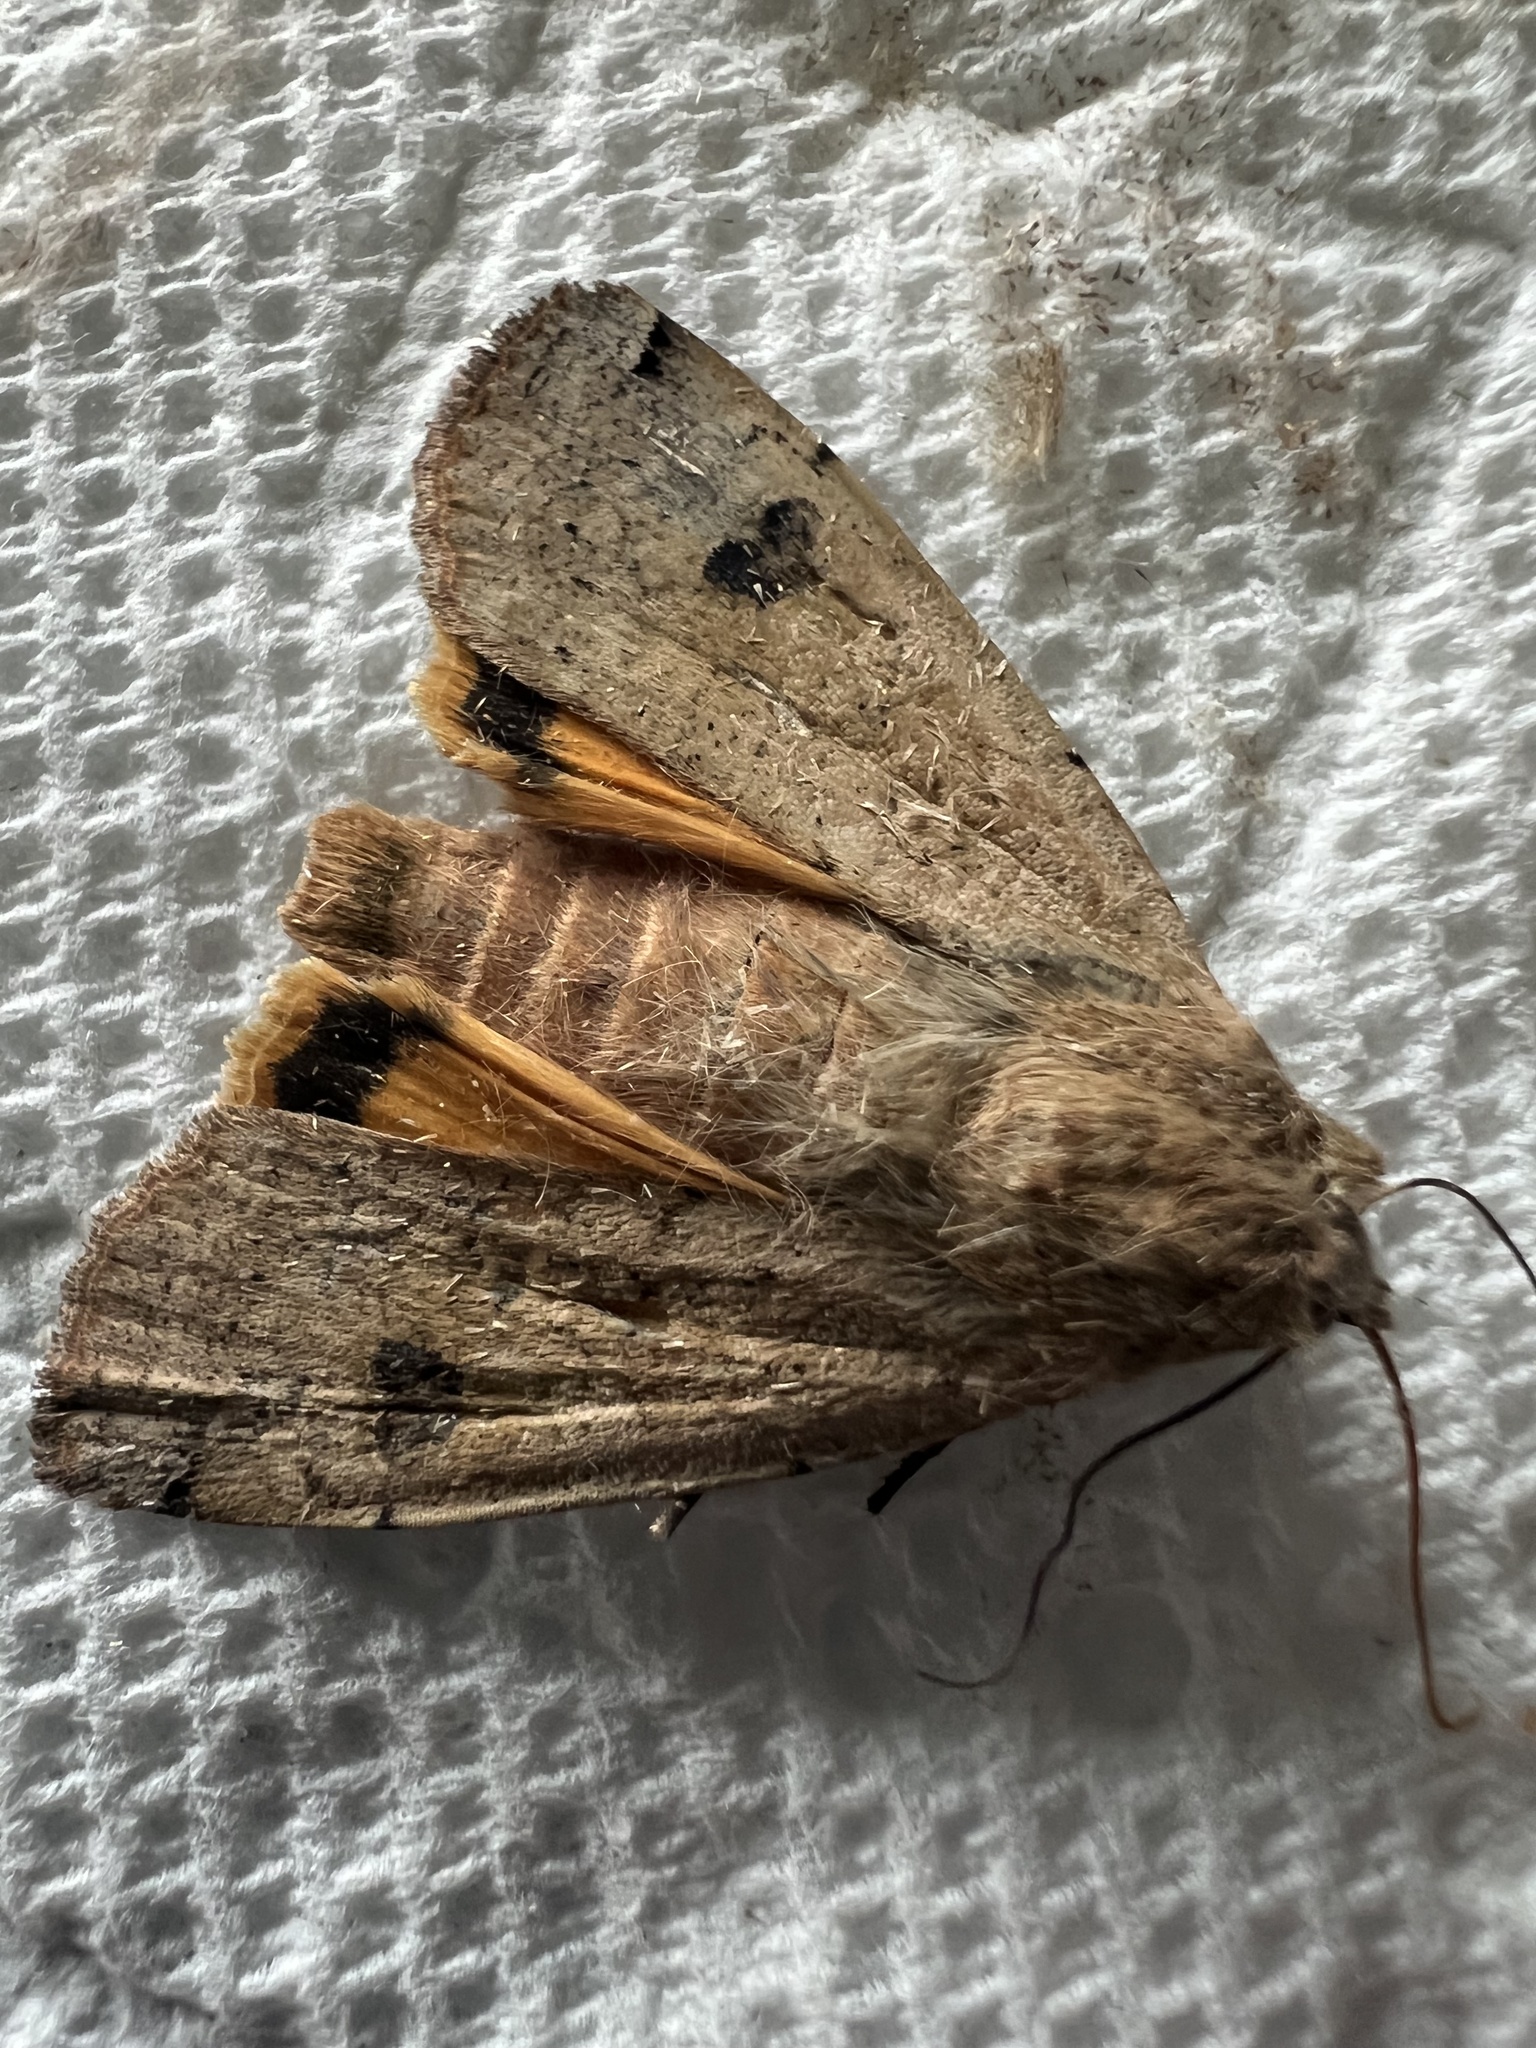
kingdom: Animalia
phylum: Arthropoda
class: Insecta
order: Lepidoptera
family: Noctuidae
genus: Noctua
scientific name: Noctua pronuba
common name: Large yellow underwing
